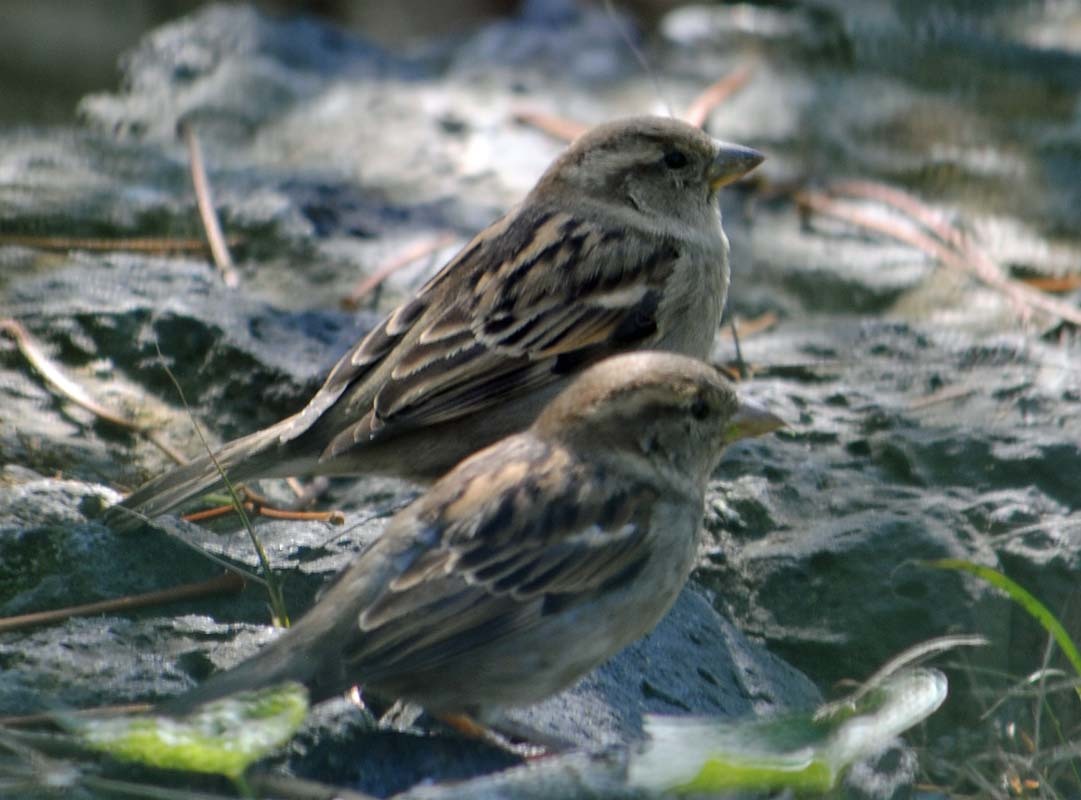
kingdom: Animalia
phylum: Chordata
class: Aves
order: Passeriformes
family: Passeridae
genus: Passer
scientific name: Passer domesticus
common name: House sparrow
